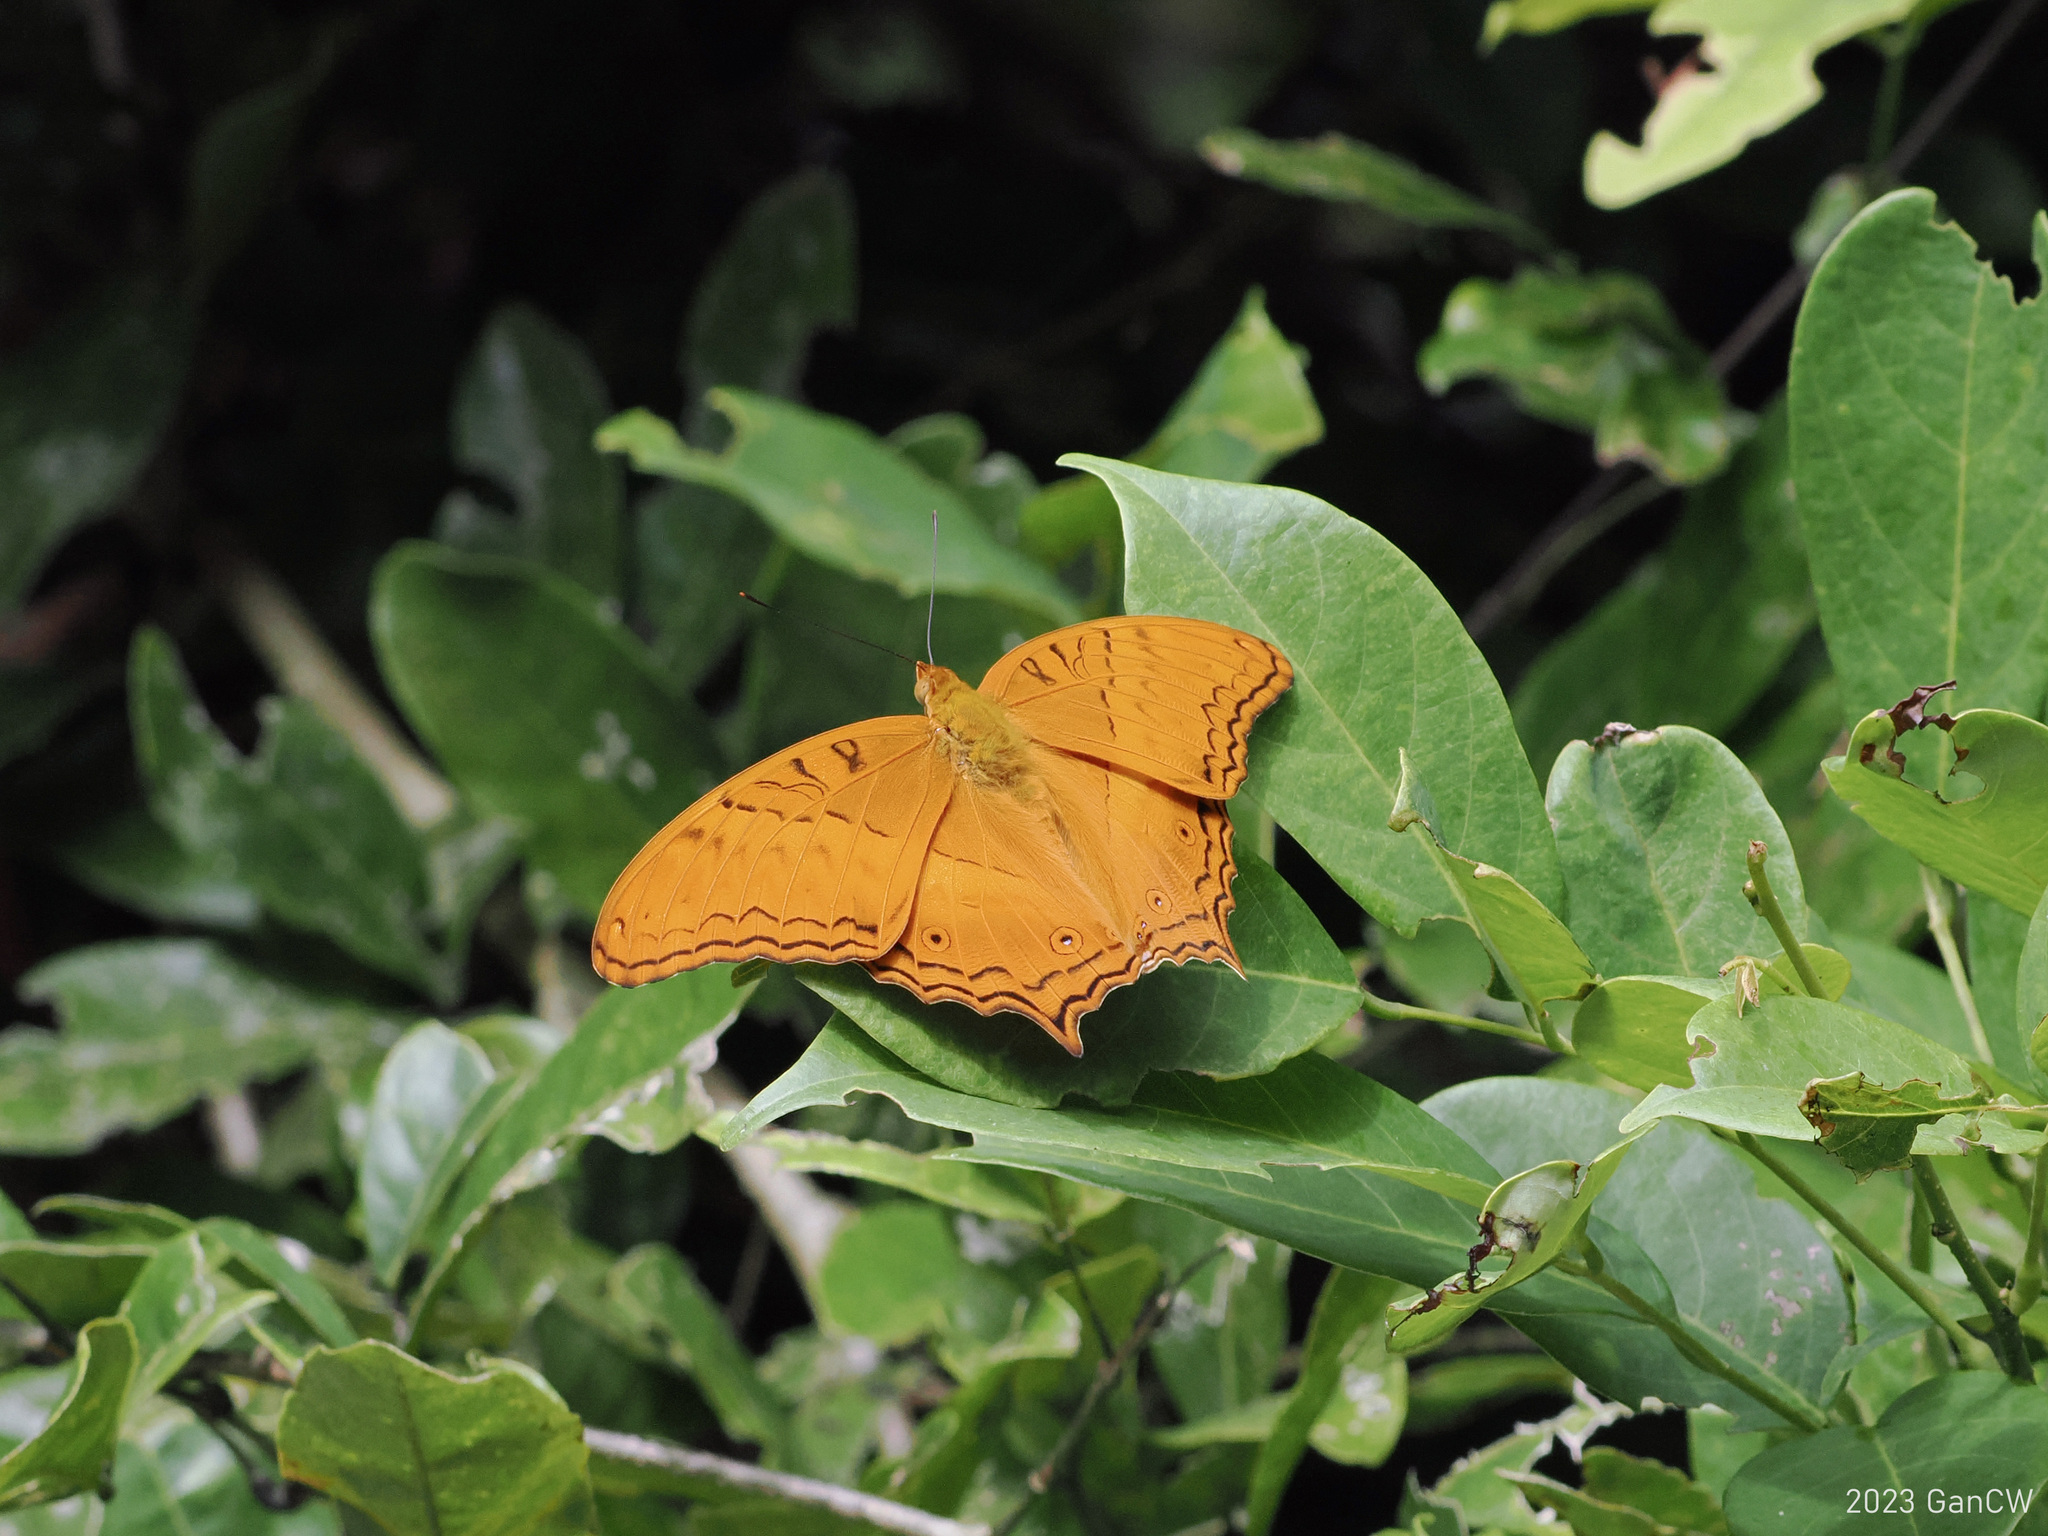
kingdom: Animalia
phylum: Arthropoda
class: Insecta
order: Lepidoptera
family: Nymphalidae
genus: Vindula
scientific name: Vindula deione
